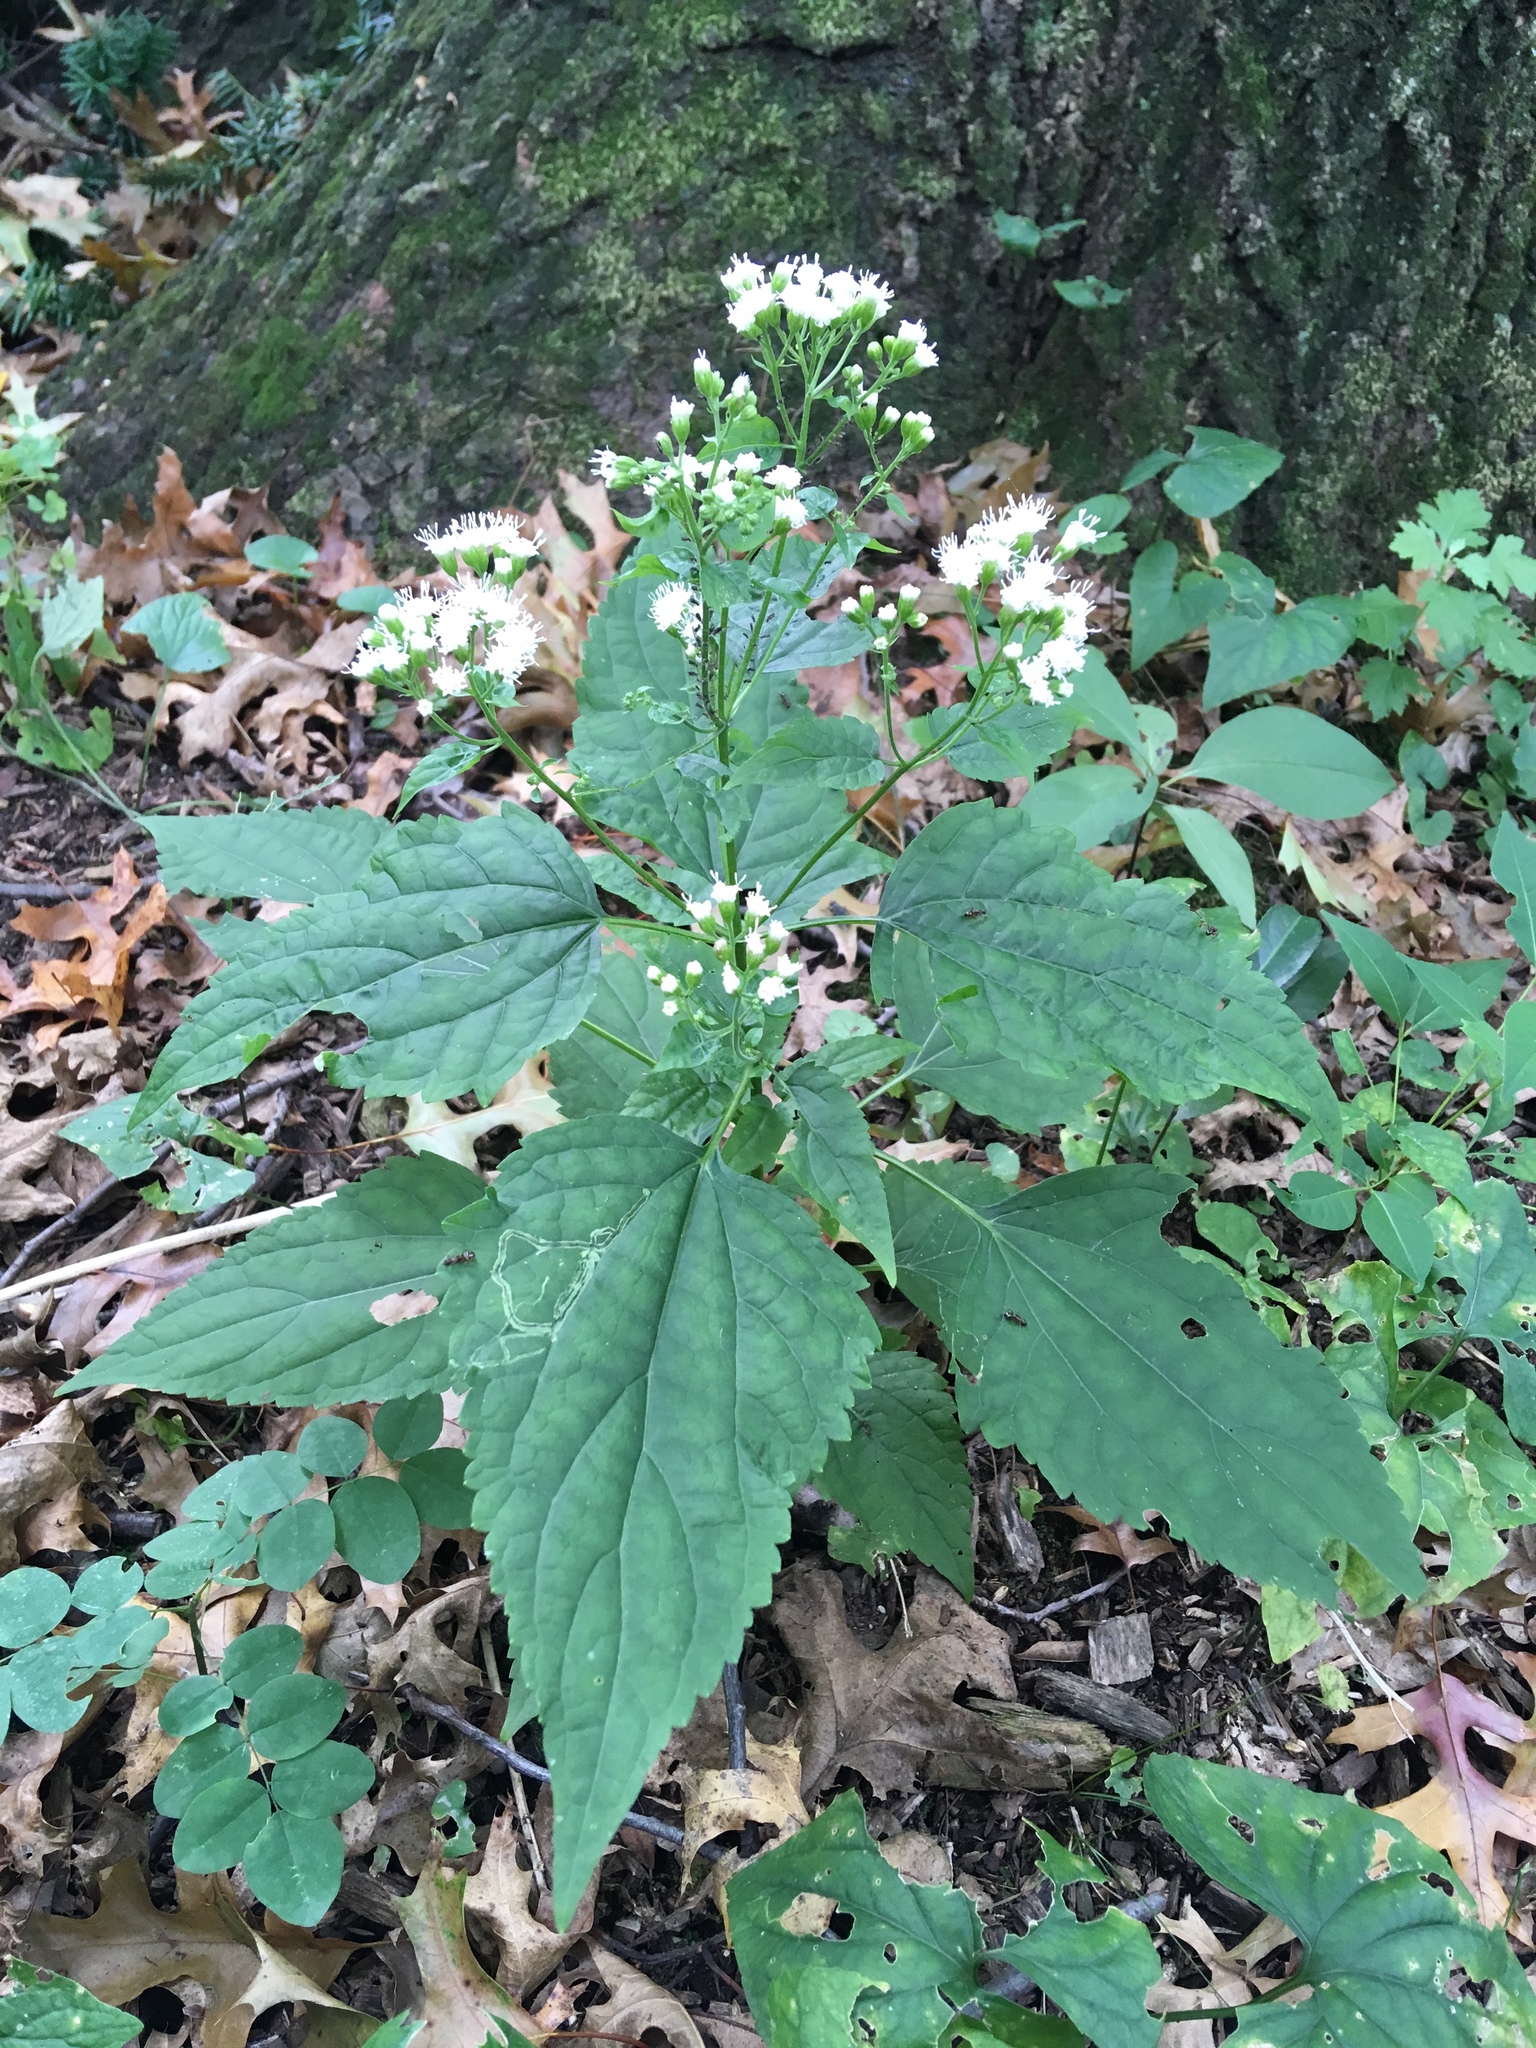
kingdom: Plantae
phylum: Tracheophyta
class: Magnoliopsida
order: Asterales
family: Asteraceae
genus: Ageratina
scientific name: Ageratina altissima
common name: White snakeroot
